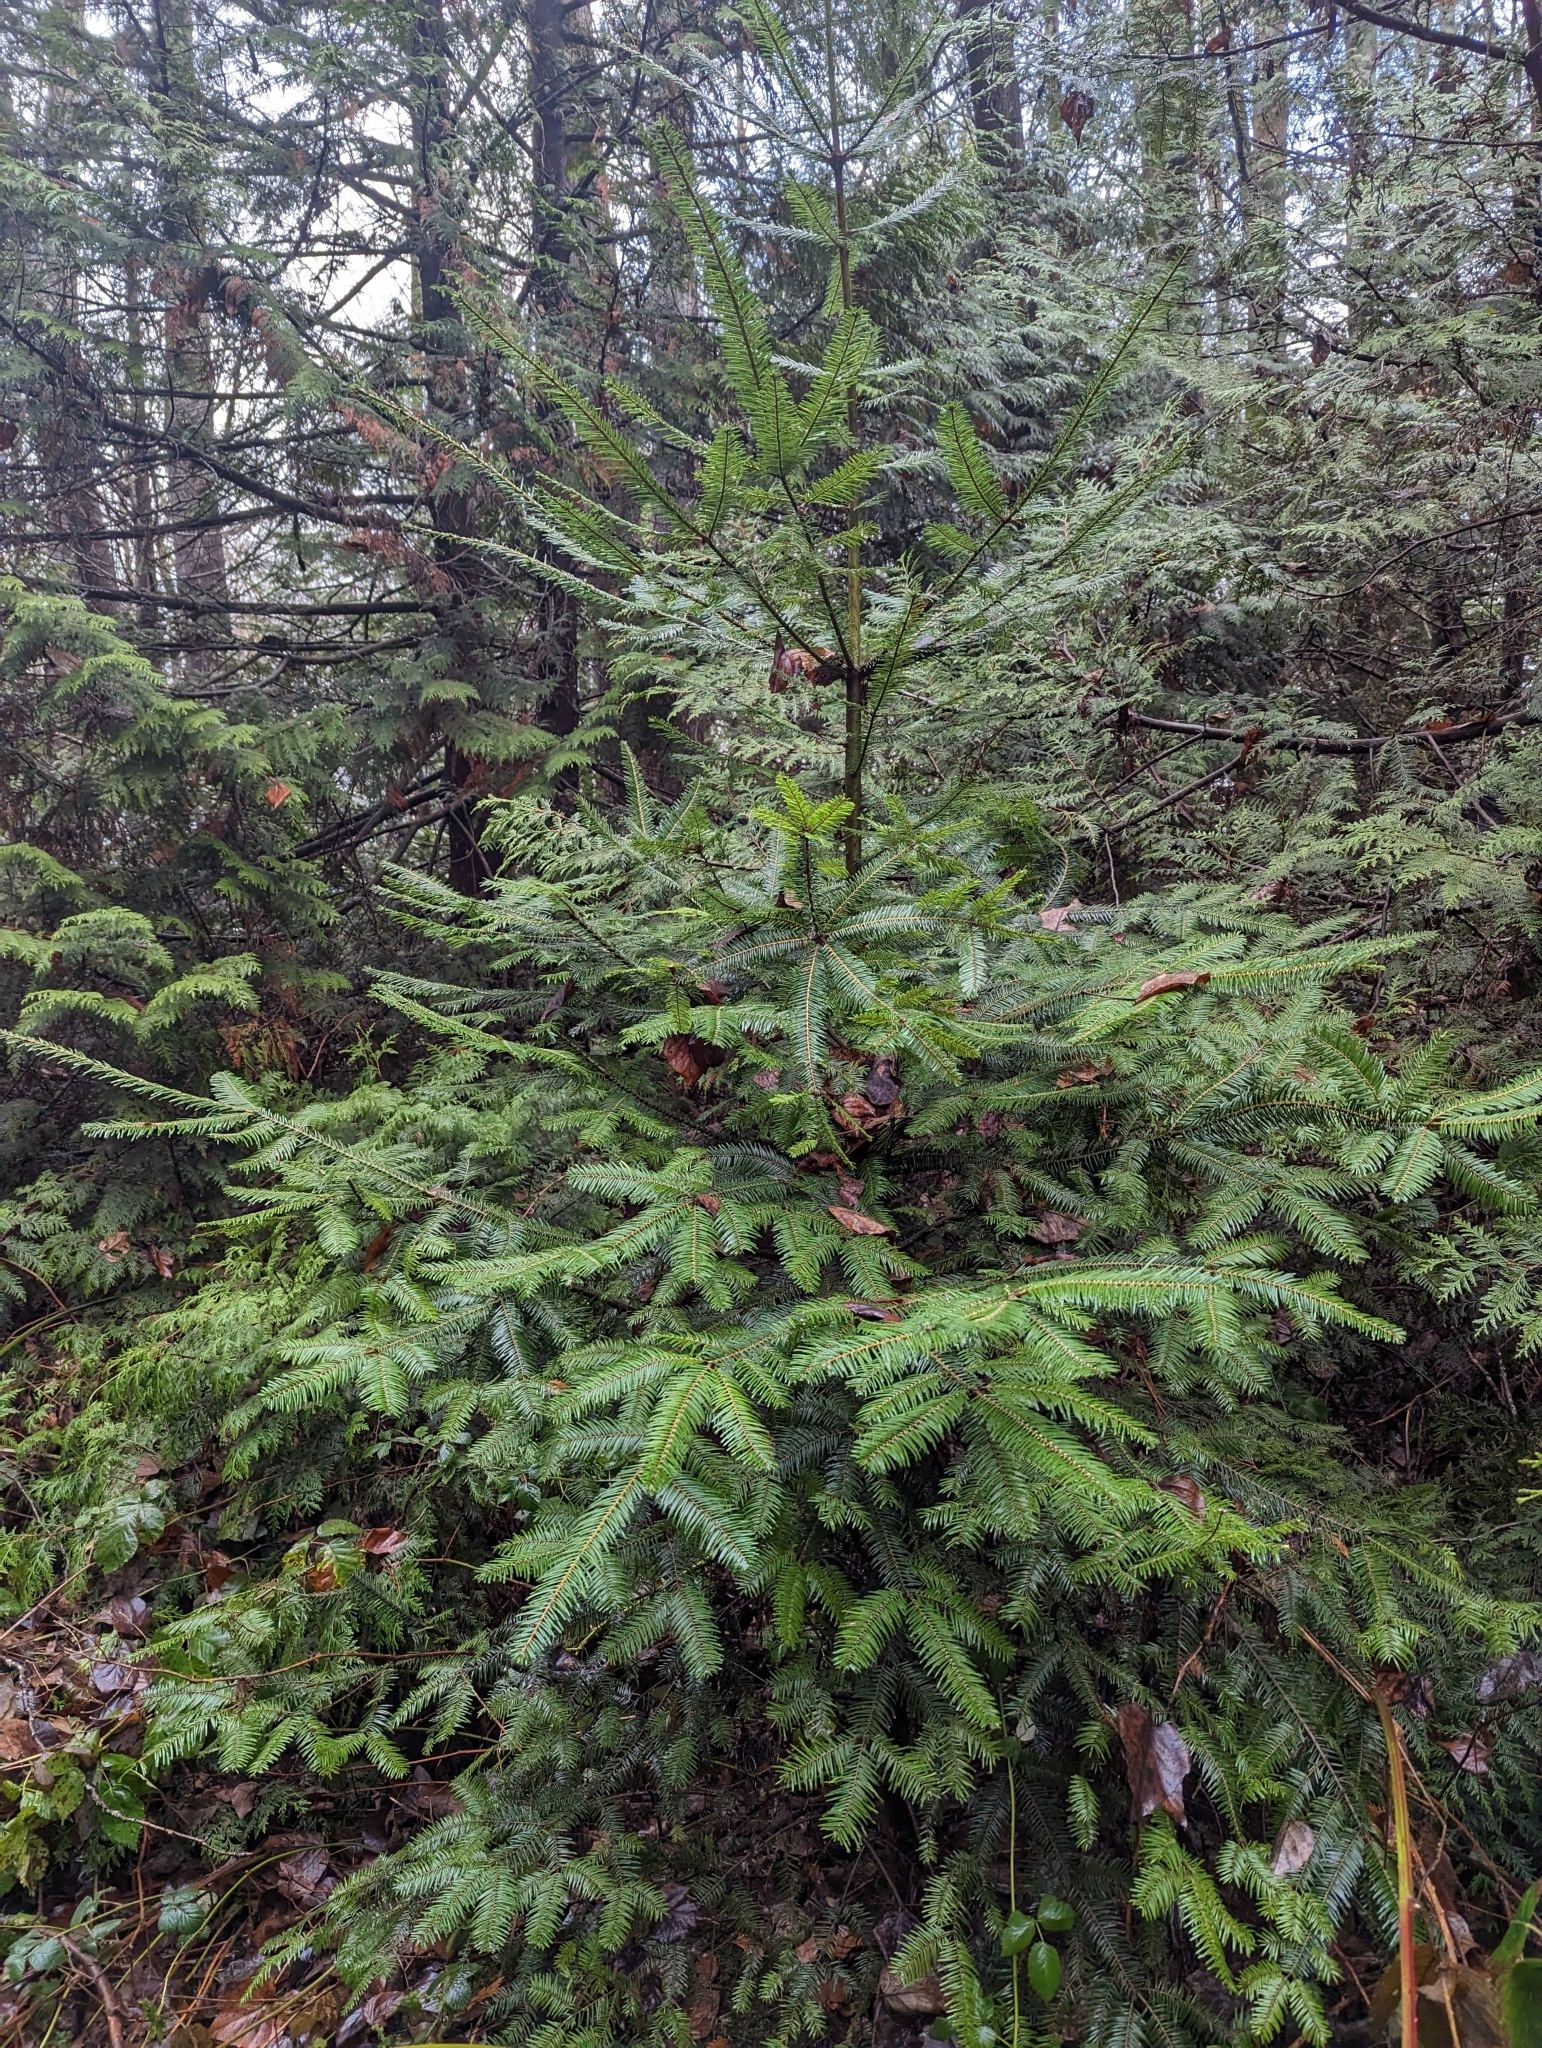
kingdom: Plantae
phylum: Tracheophyta
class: Pinopsida
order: Pinales
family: Pinaceae
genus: Abies
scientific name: Abies grandis
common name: Giant fir
